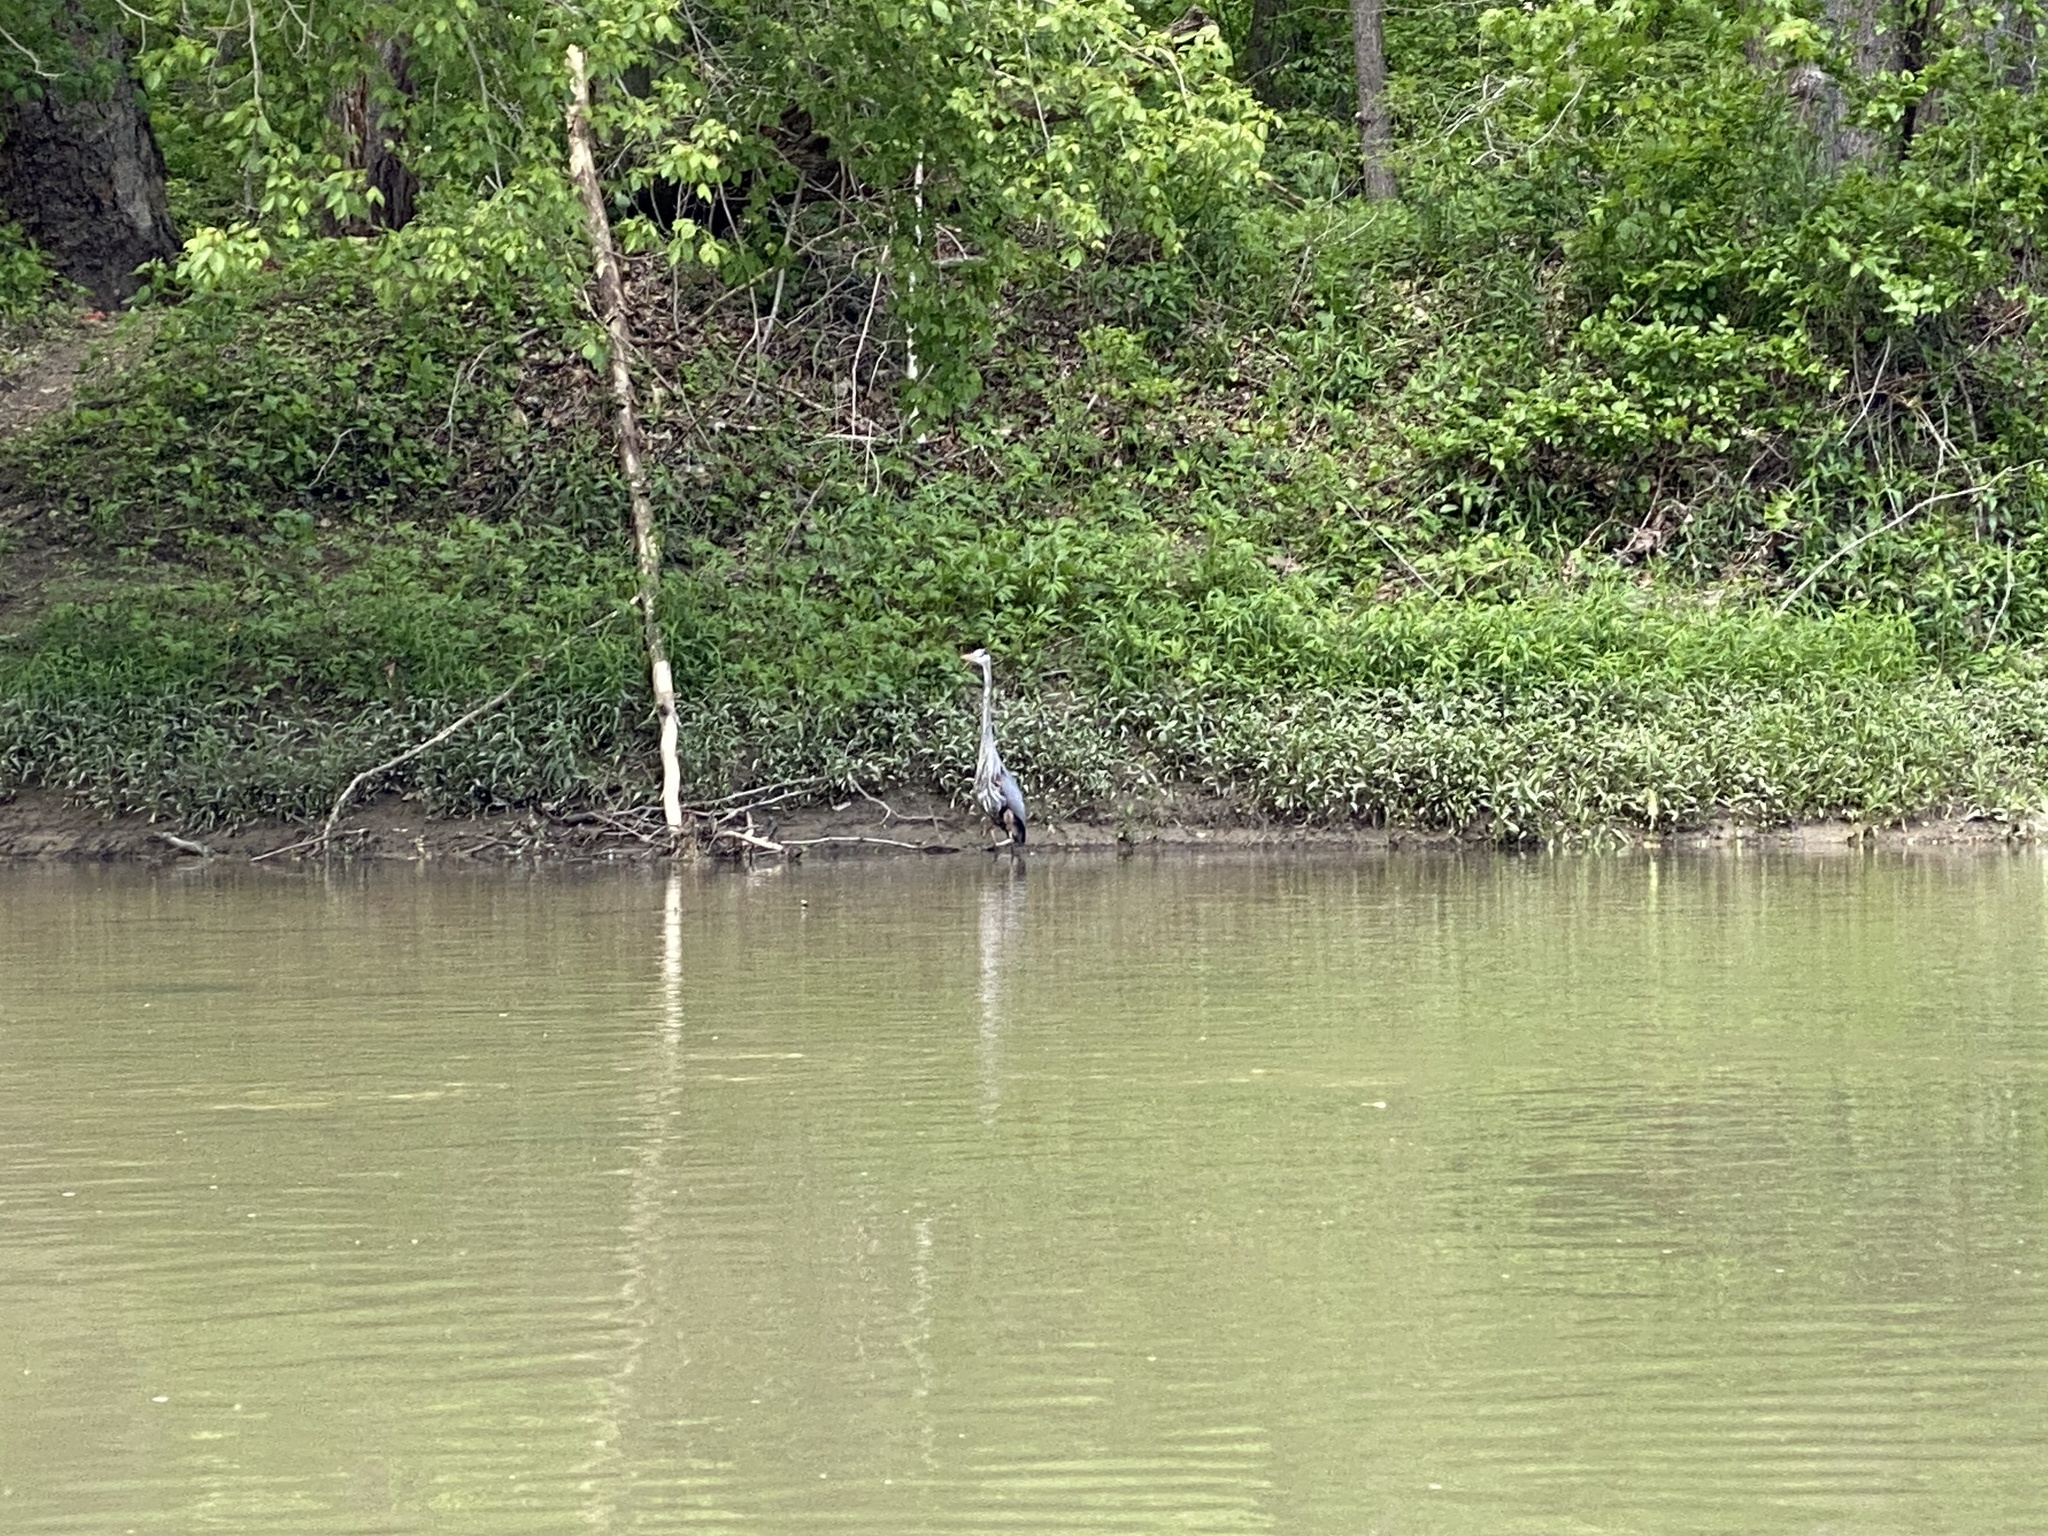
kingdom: Animalia
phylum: Chordata
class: Aves
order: Pelecaniformes
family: Ardeidae
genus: Ardea
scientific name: Ardea herodias
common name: Great blue heron
